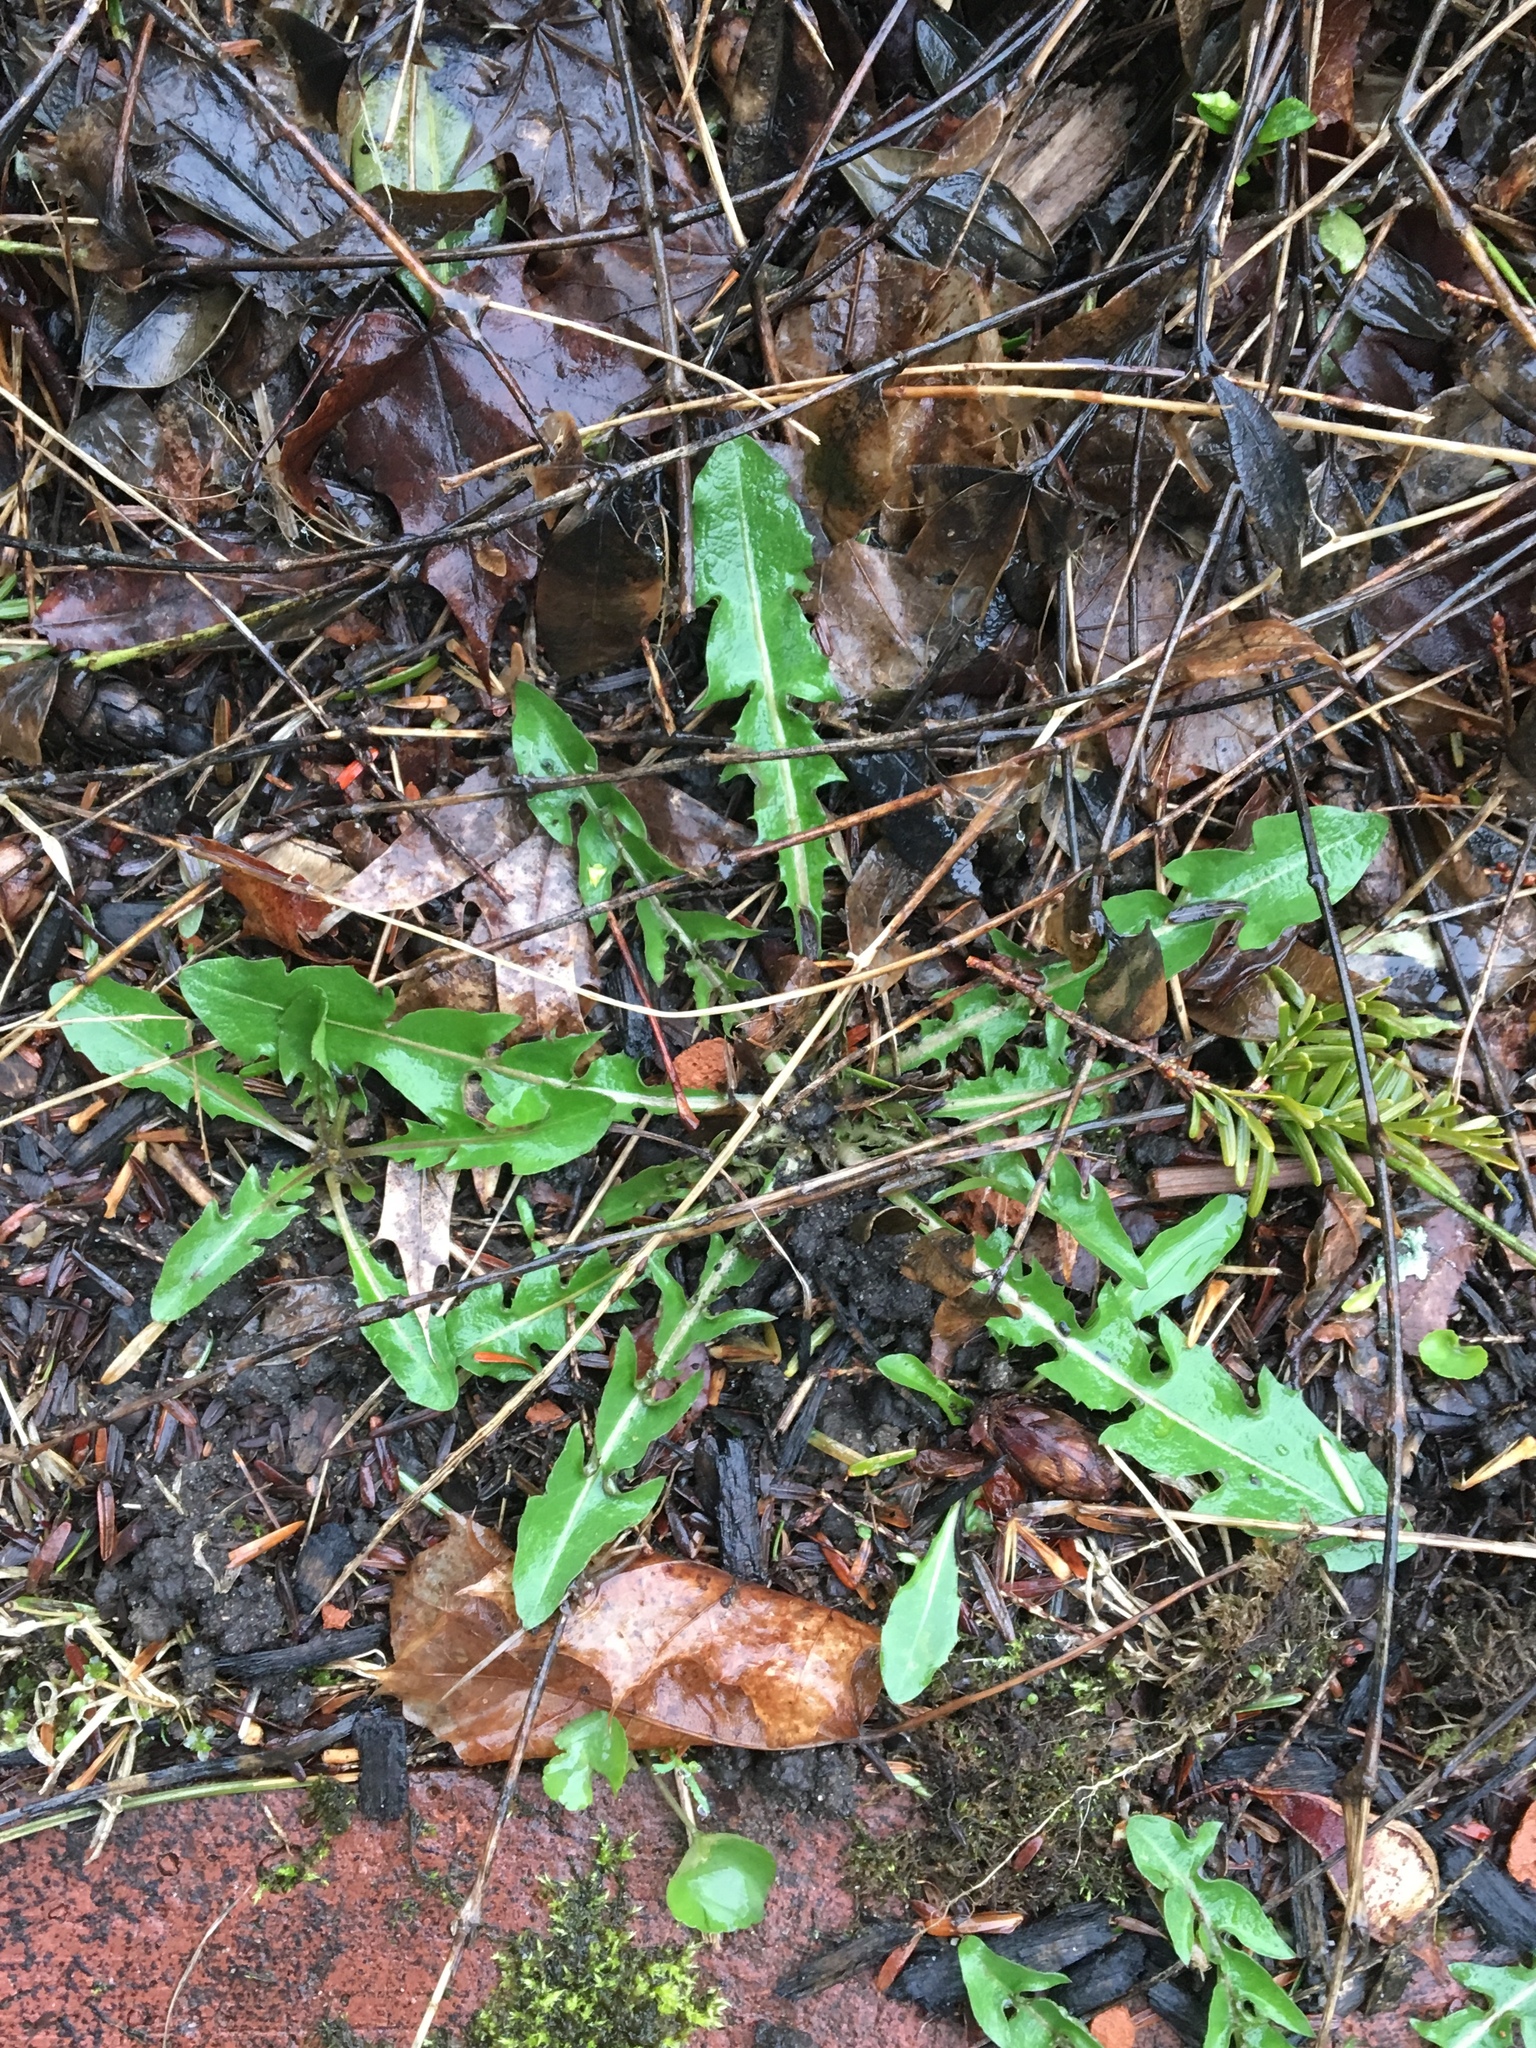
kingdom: Plantae
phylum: Tracheophyta
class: Magnoliopsida
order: Asterales
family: Asteraceae
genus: Taraxacum
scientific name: Taraxacum officinale
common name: Common dandelion
